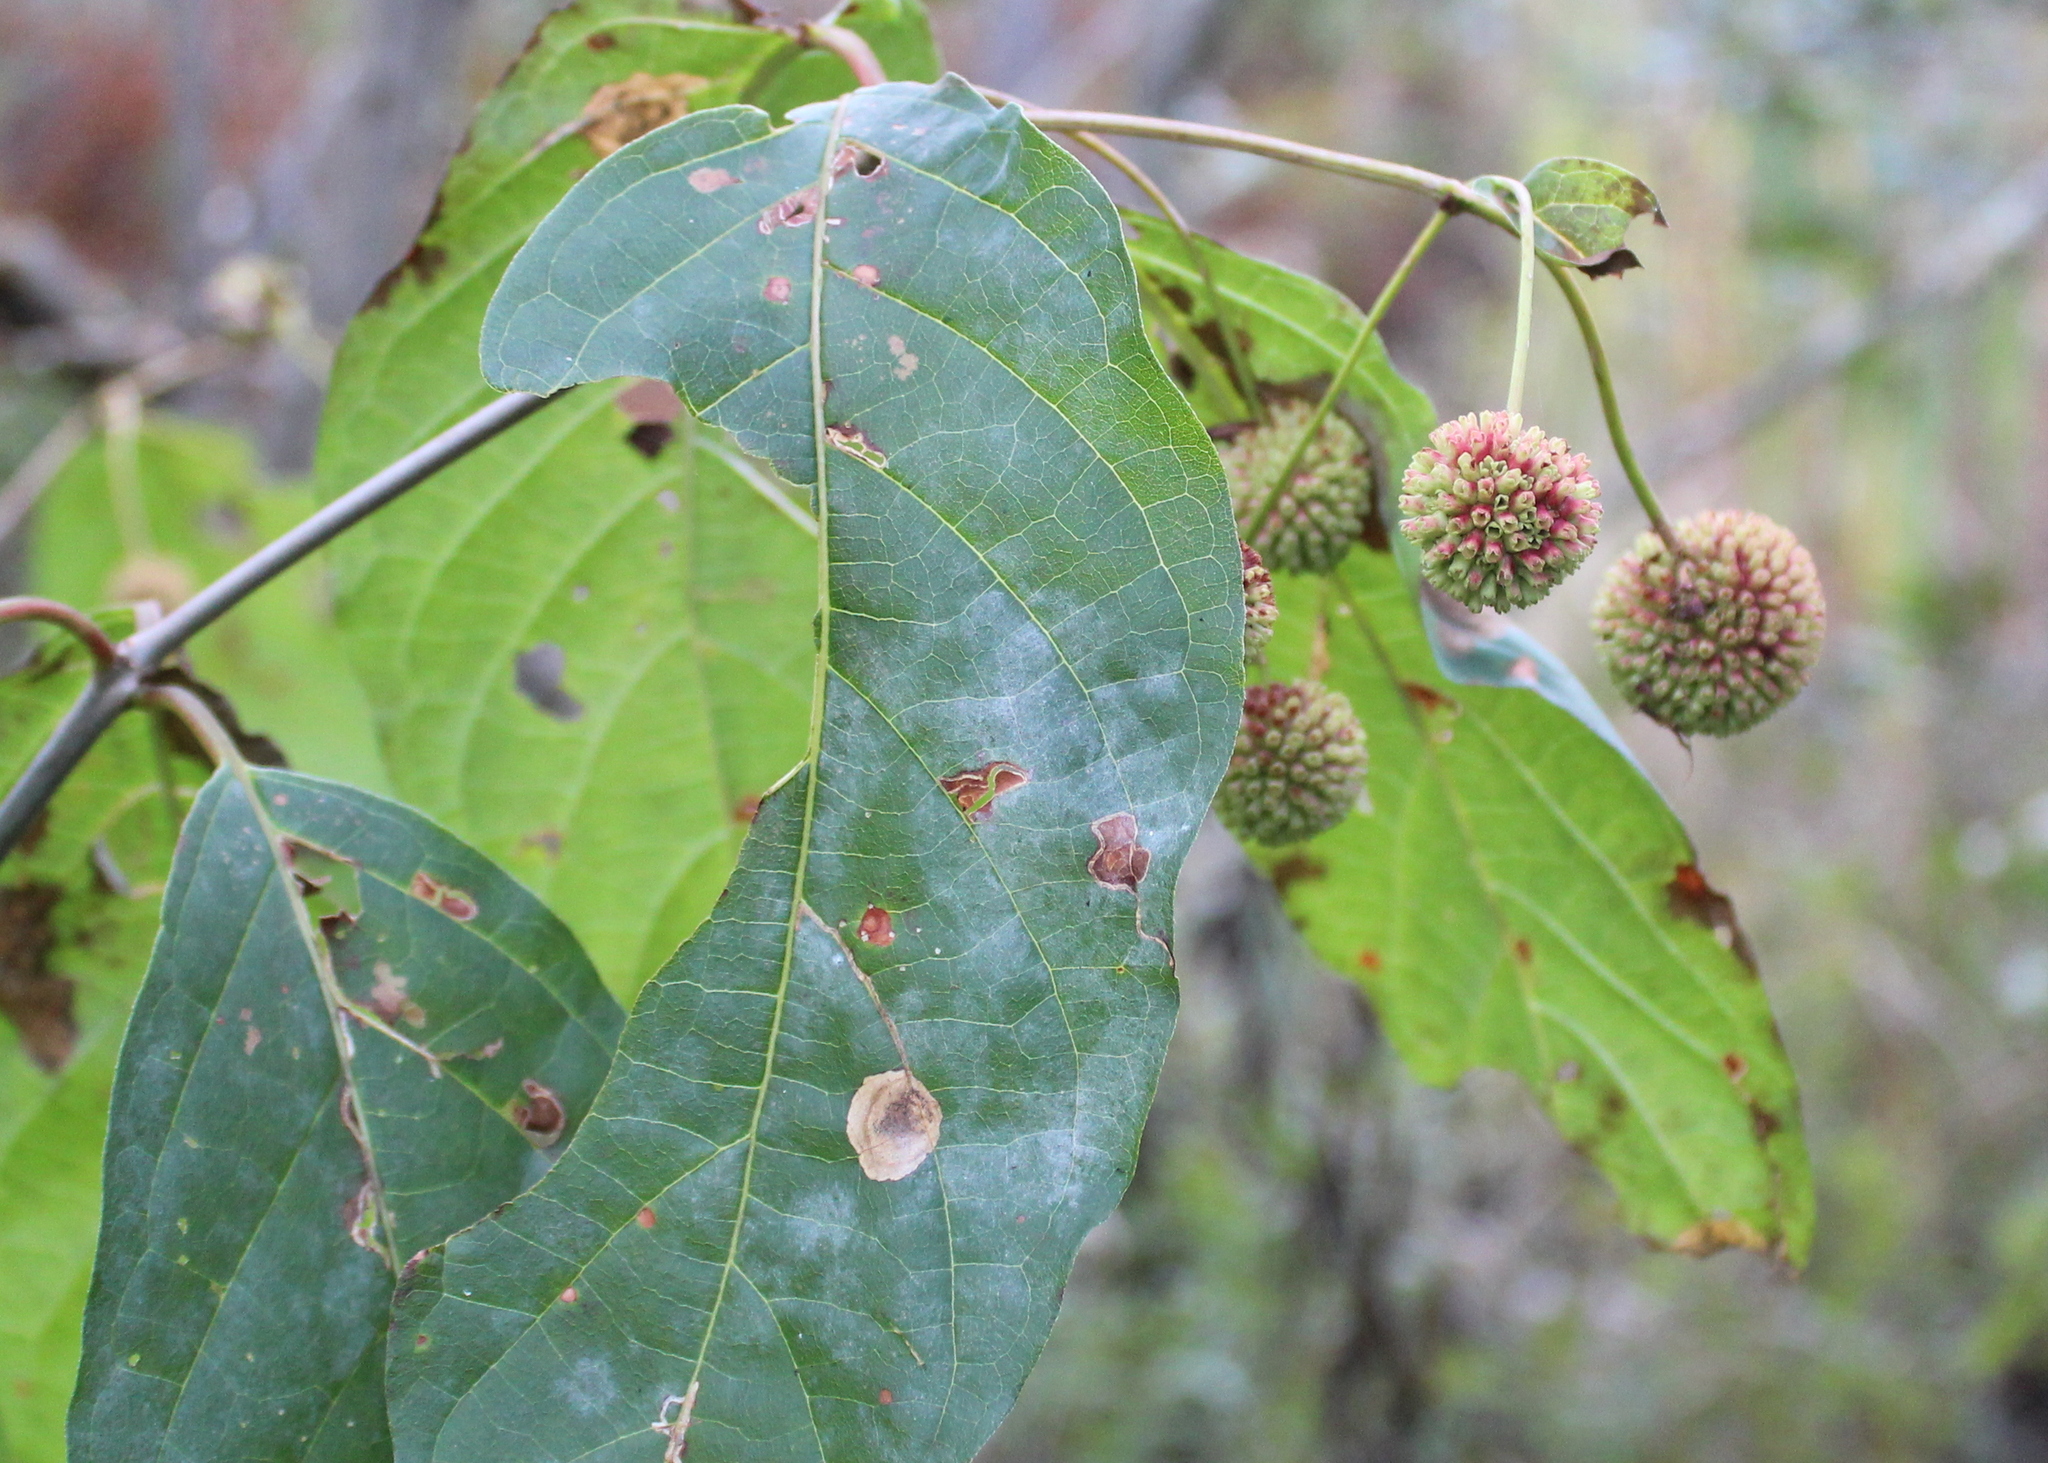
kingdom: Plantae
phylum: Tracheophyta
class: Magnoliopsida
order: Gentianales
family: Rubiaceae
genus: Cephalanthus
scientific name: Cephalanthus occidentalis
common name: Button-willow
